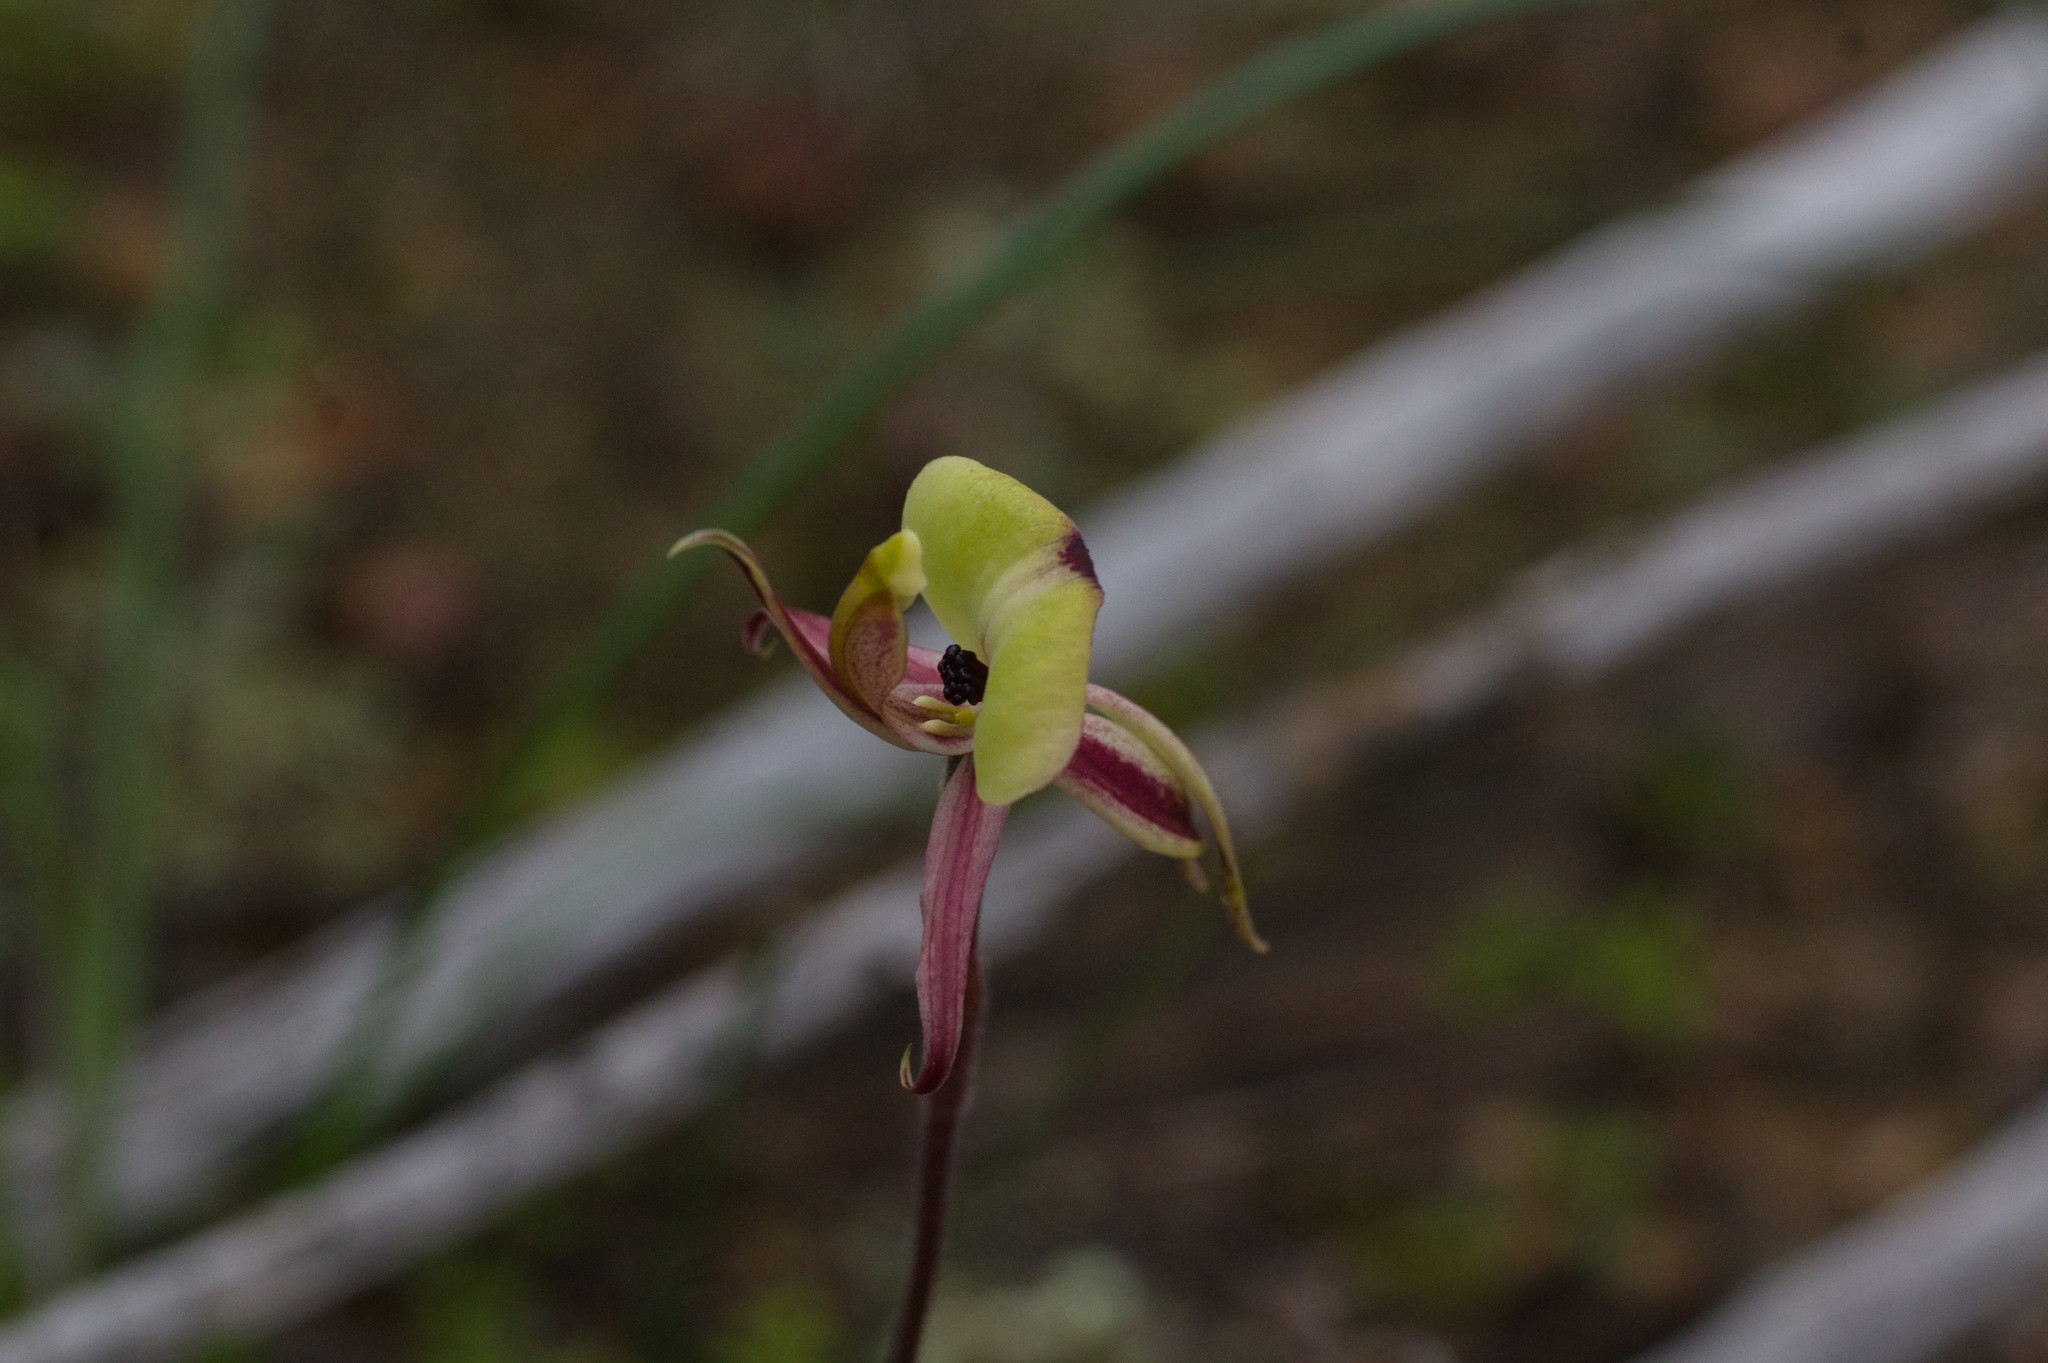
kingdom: Plantae
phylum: Tracheophyta
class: Liliopsida
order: Asparagales
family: Orchidaceae
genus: Caladenia
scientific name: Caladenia roei
